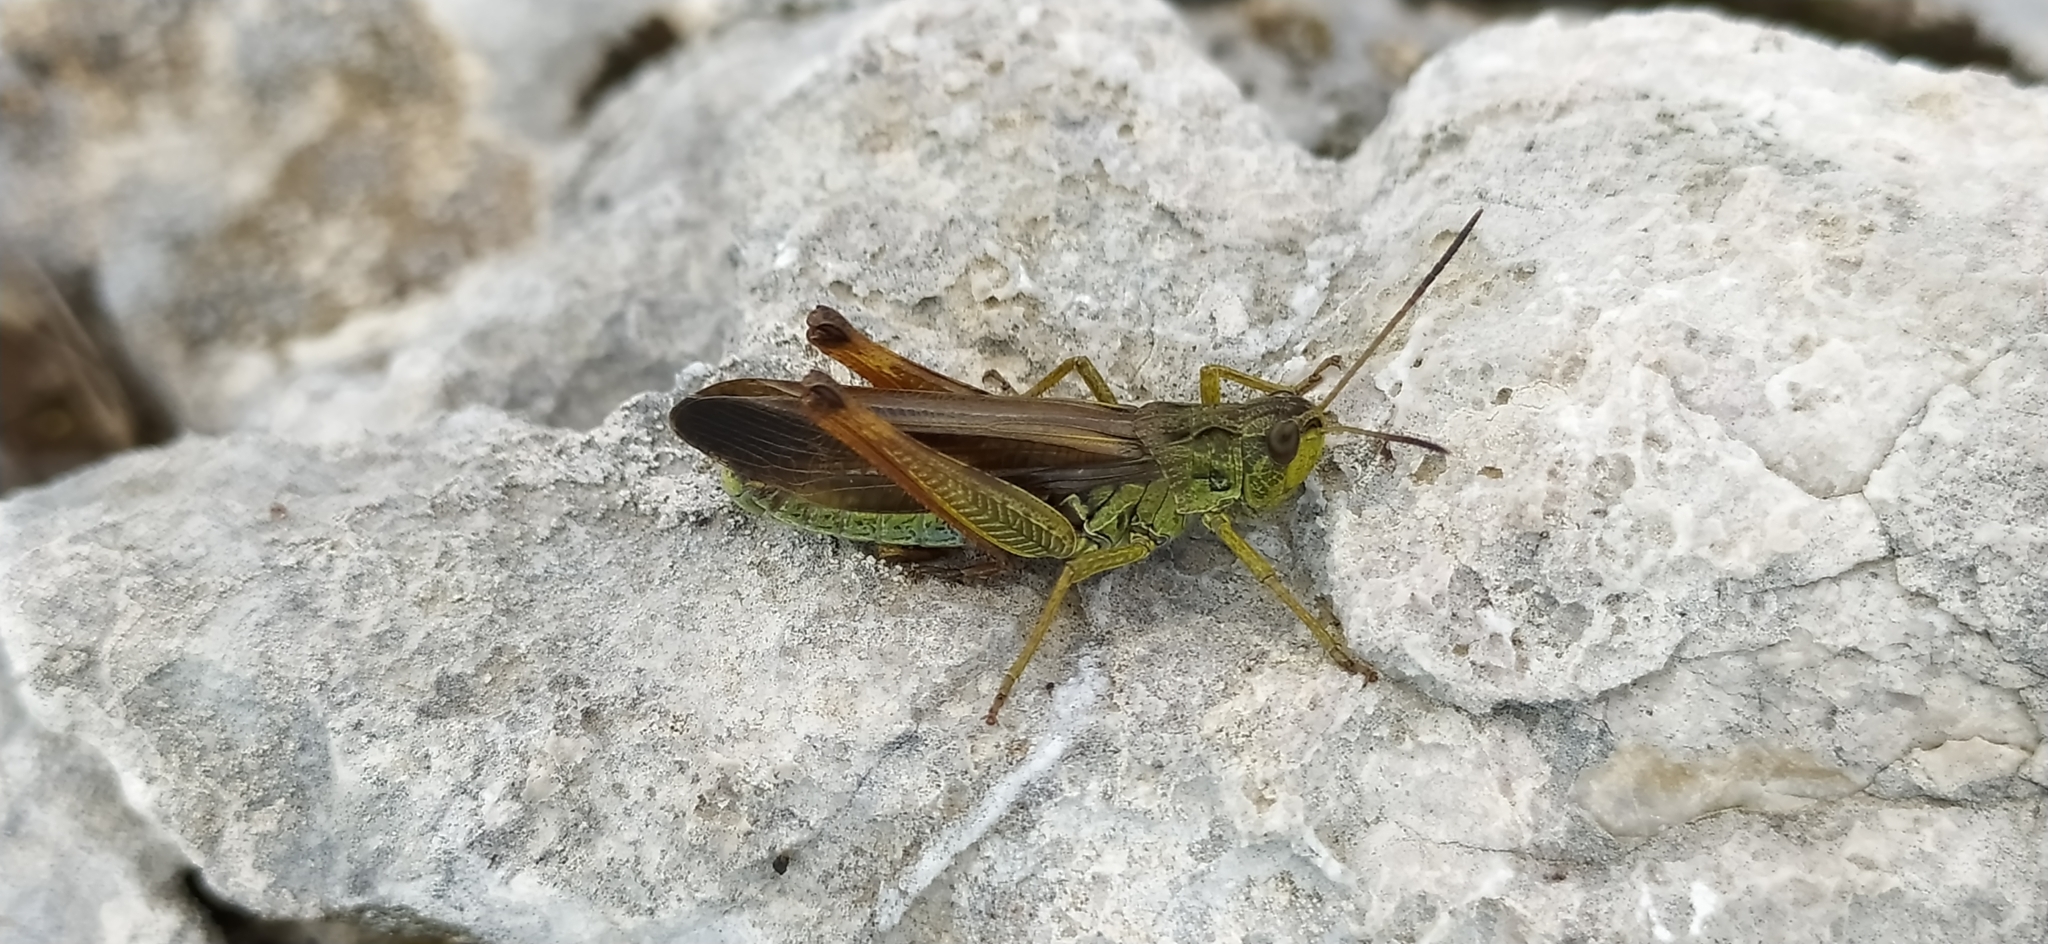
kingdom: Animalia
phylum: Arthropoda
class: Insecta
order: Orthoptera
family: Acrididae
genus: Stauroderus
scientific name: Stauroderus scalaris
